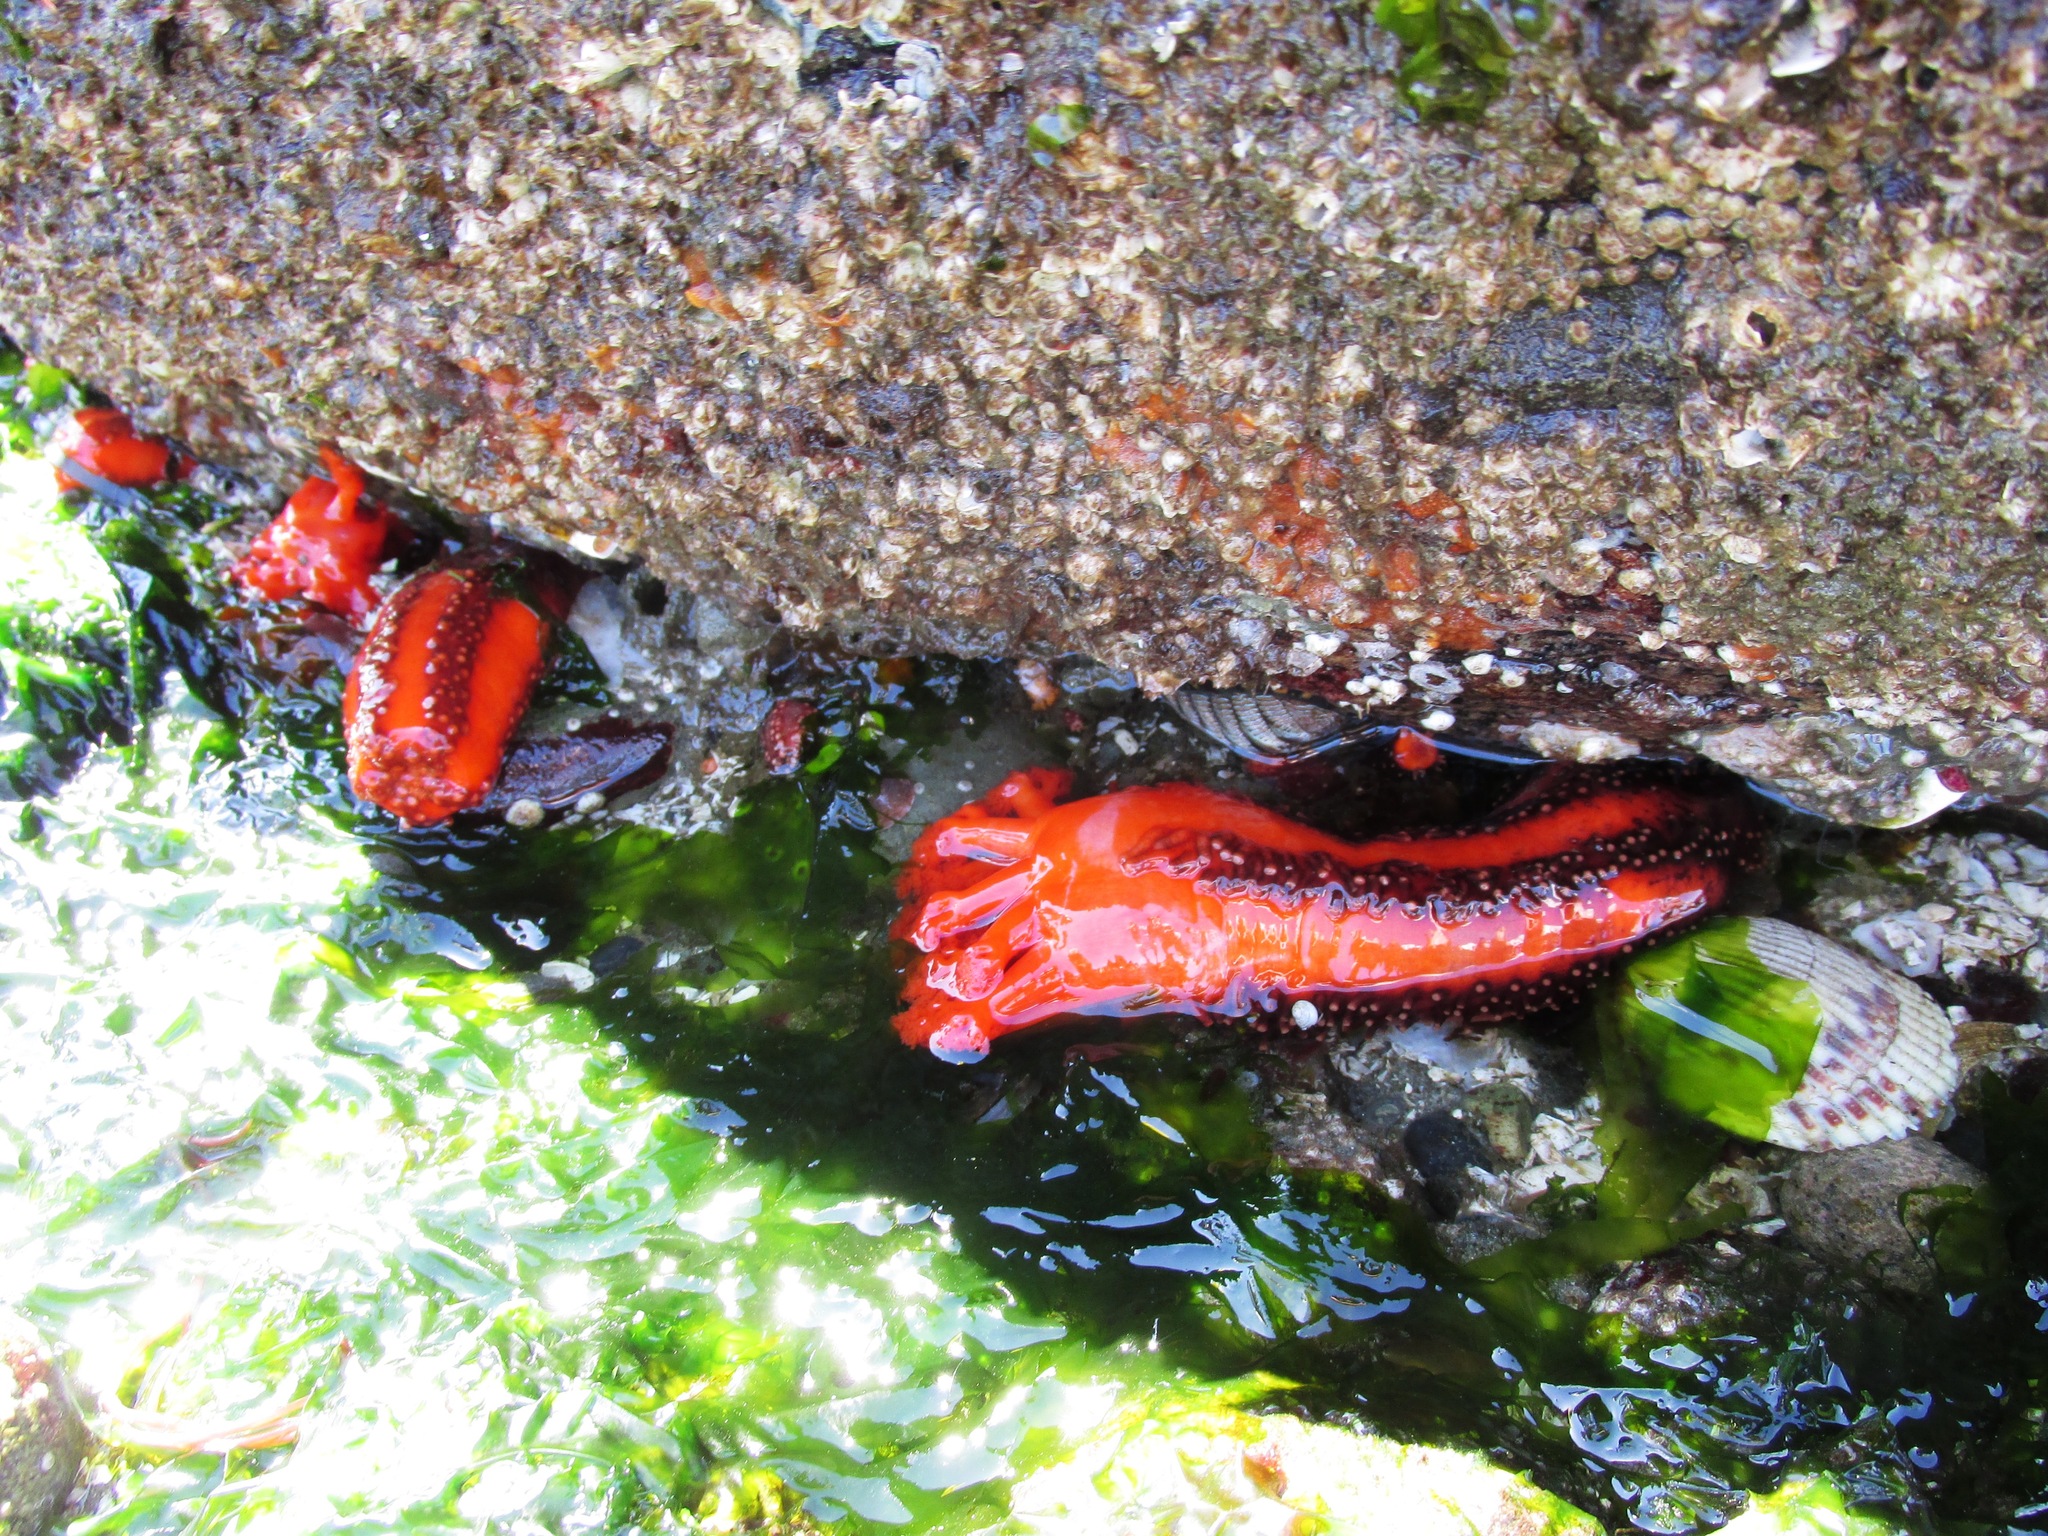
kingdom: Animalia
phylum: Echinodermata
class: Holothuroidea
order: Dendrochirotida
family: Cucumariidae
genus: Cucumaria
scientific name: Cucumaria miniata
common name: Orange sea cucumber
